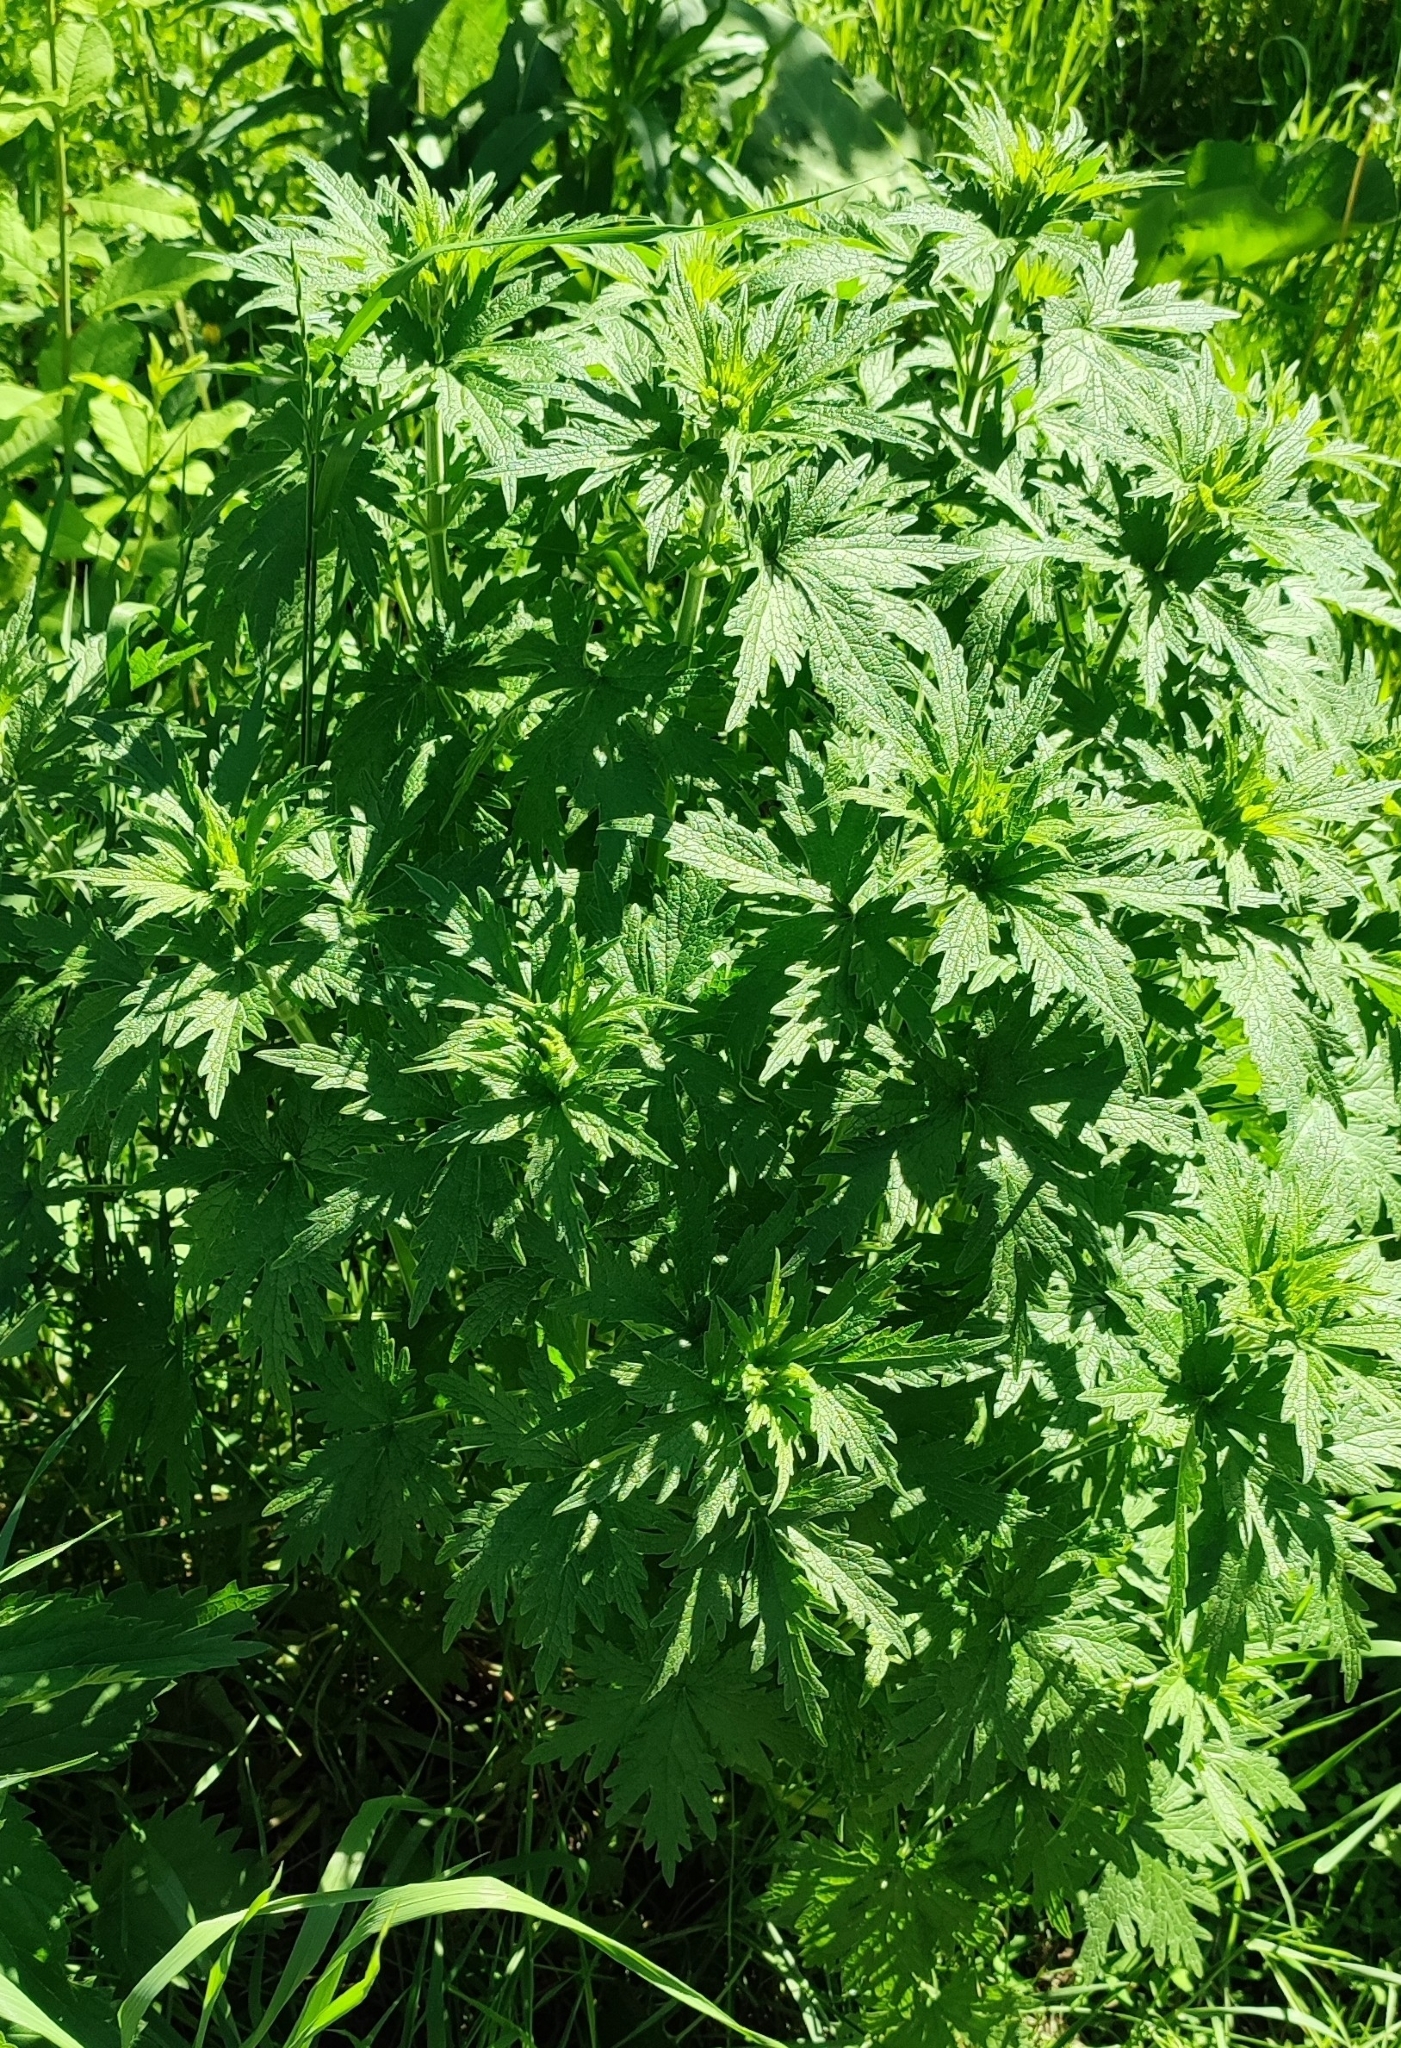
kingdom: Plantae
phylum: Tracheophyta
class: Magnoliopsida
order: Lamiales
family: Lamiaceae
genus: Leonurus
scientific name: Leonurus quinquelobatus
